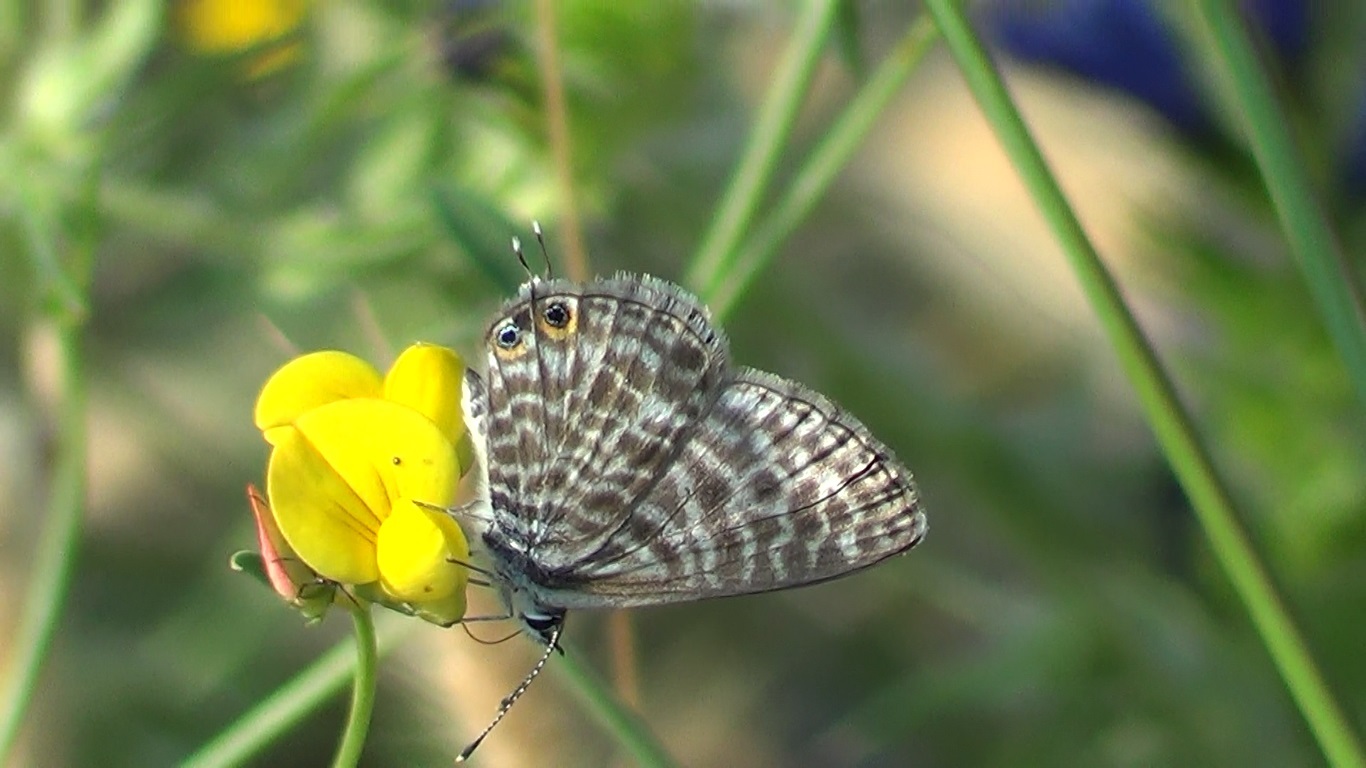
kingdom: Animalia
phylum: Arthropoda
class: Insecta
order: Lepidoptera
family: Lycaenidae
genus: Leptotes
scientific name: Leptotes pirithous
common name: Lang's short-tailed blue
